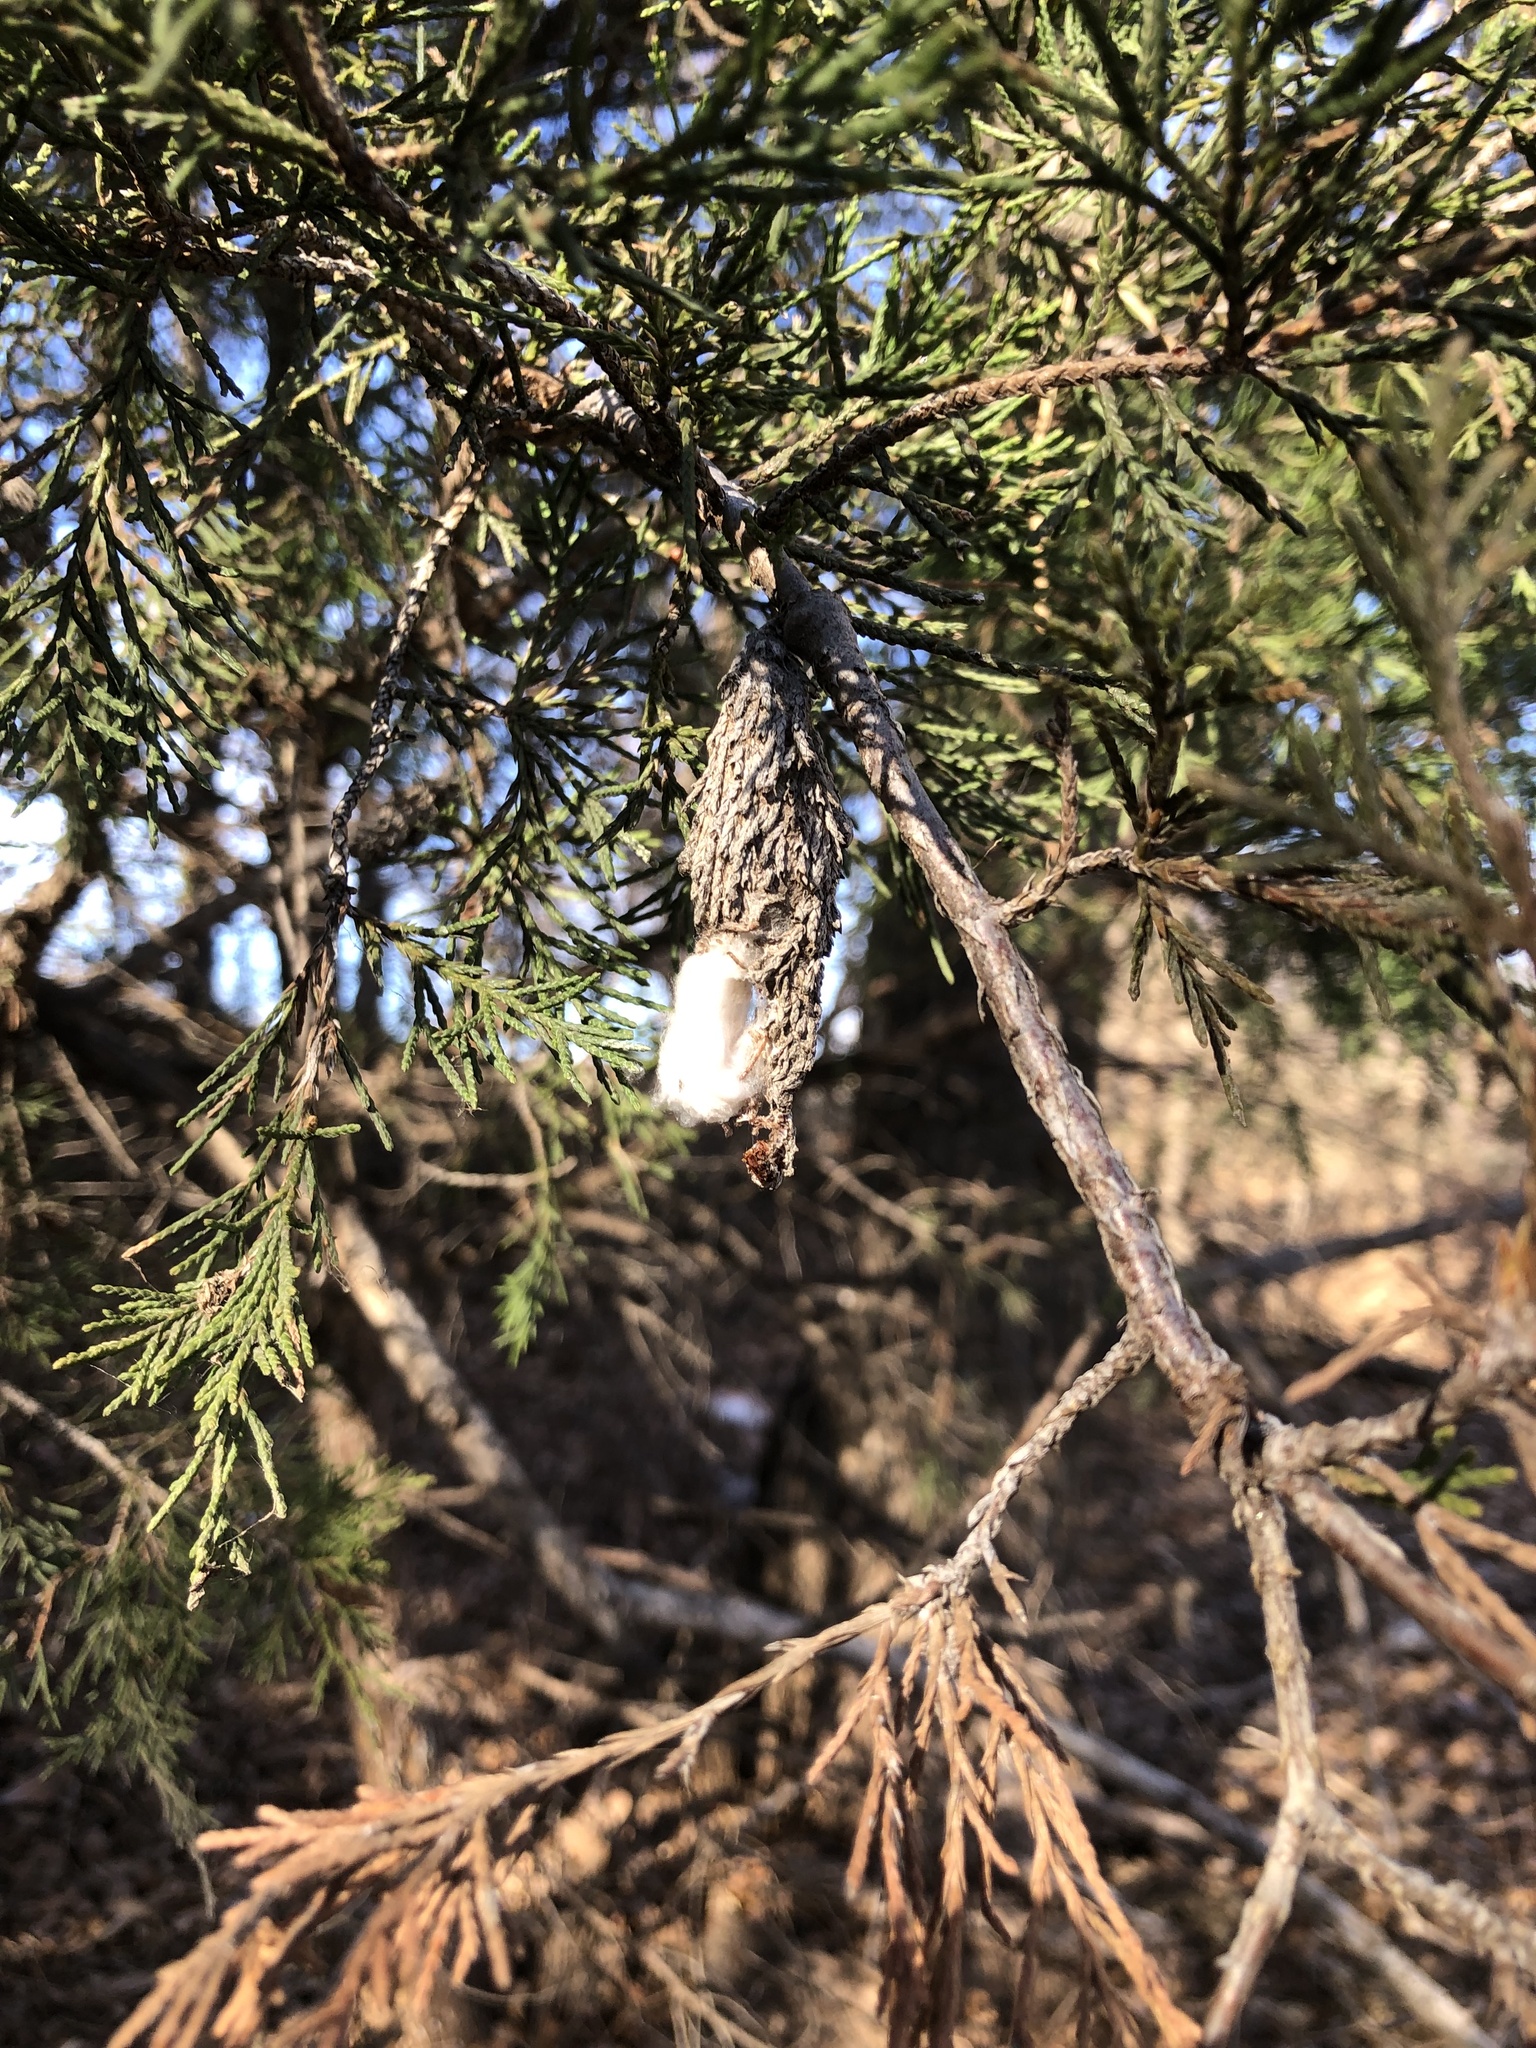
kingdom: Animalia
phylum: Arthropoda
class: Insecta
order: Lepidoptera
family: Psychidae
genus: Thyridopteryx
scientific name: Thyridopteryx ephemeraeformis
